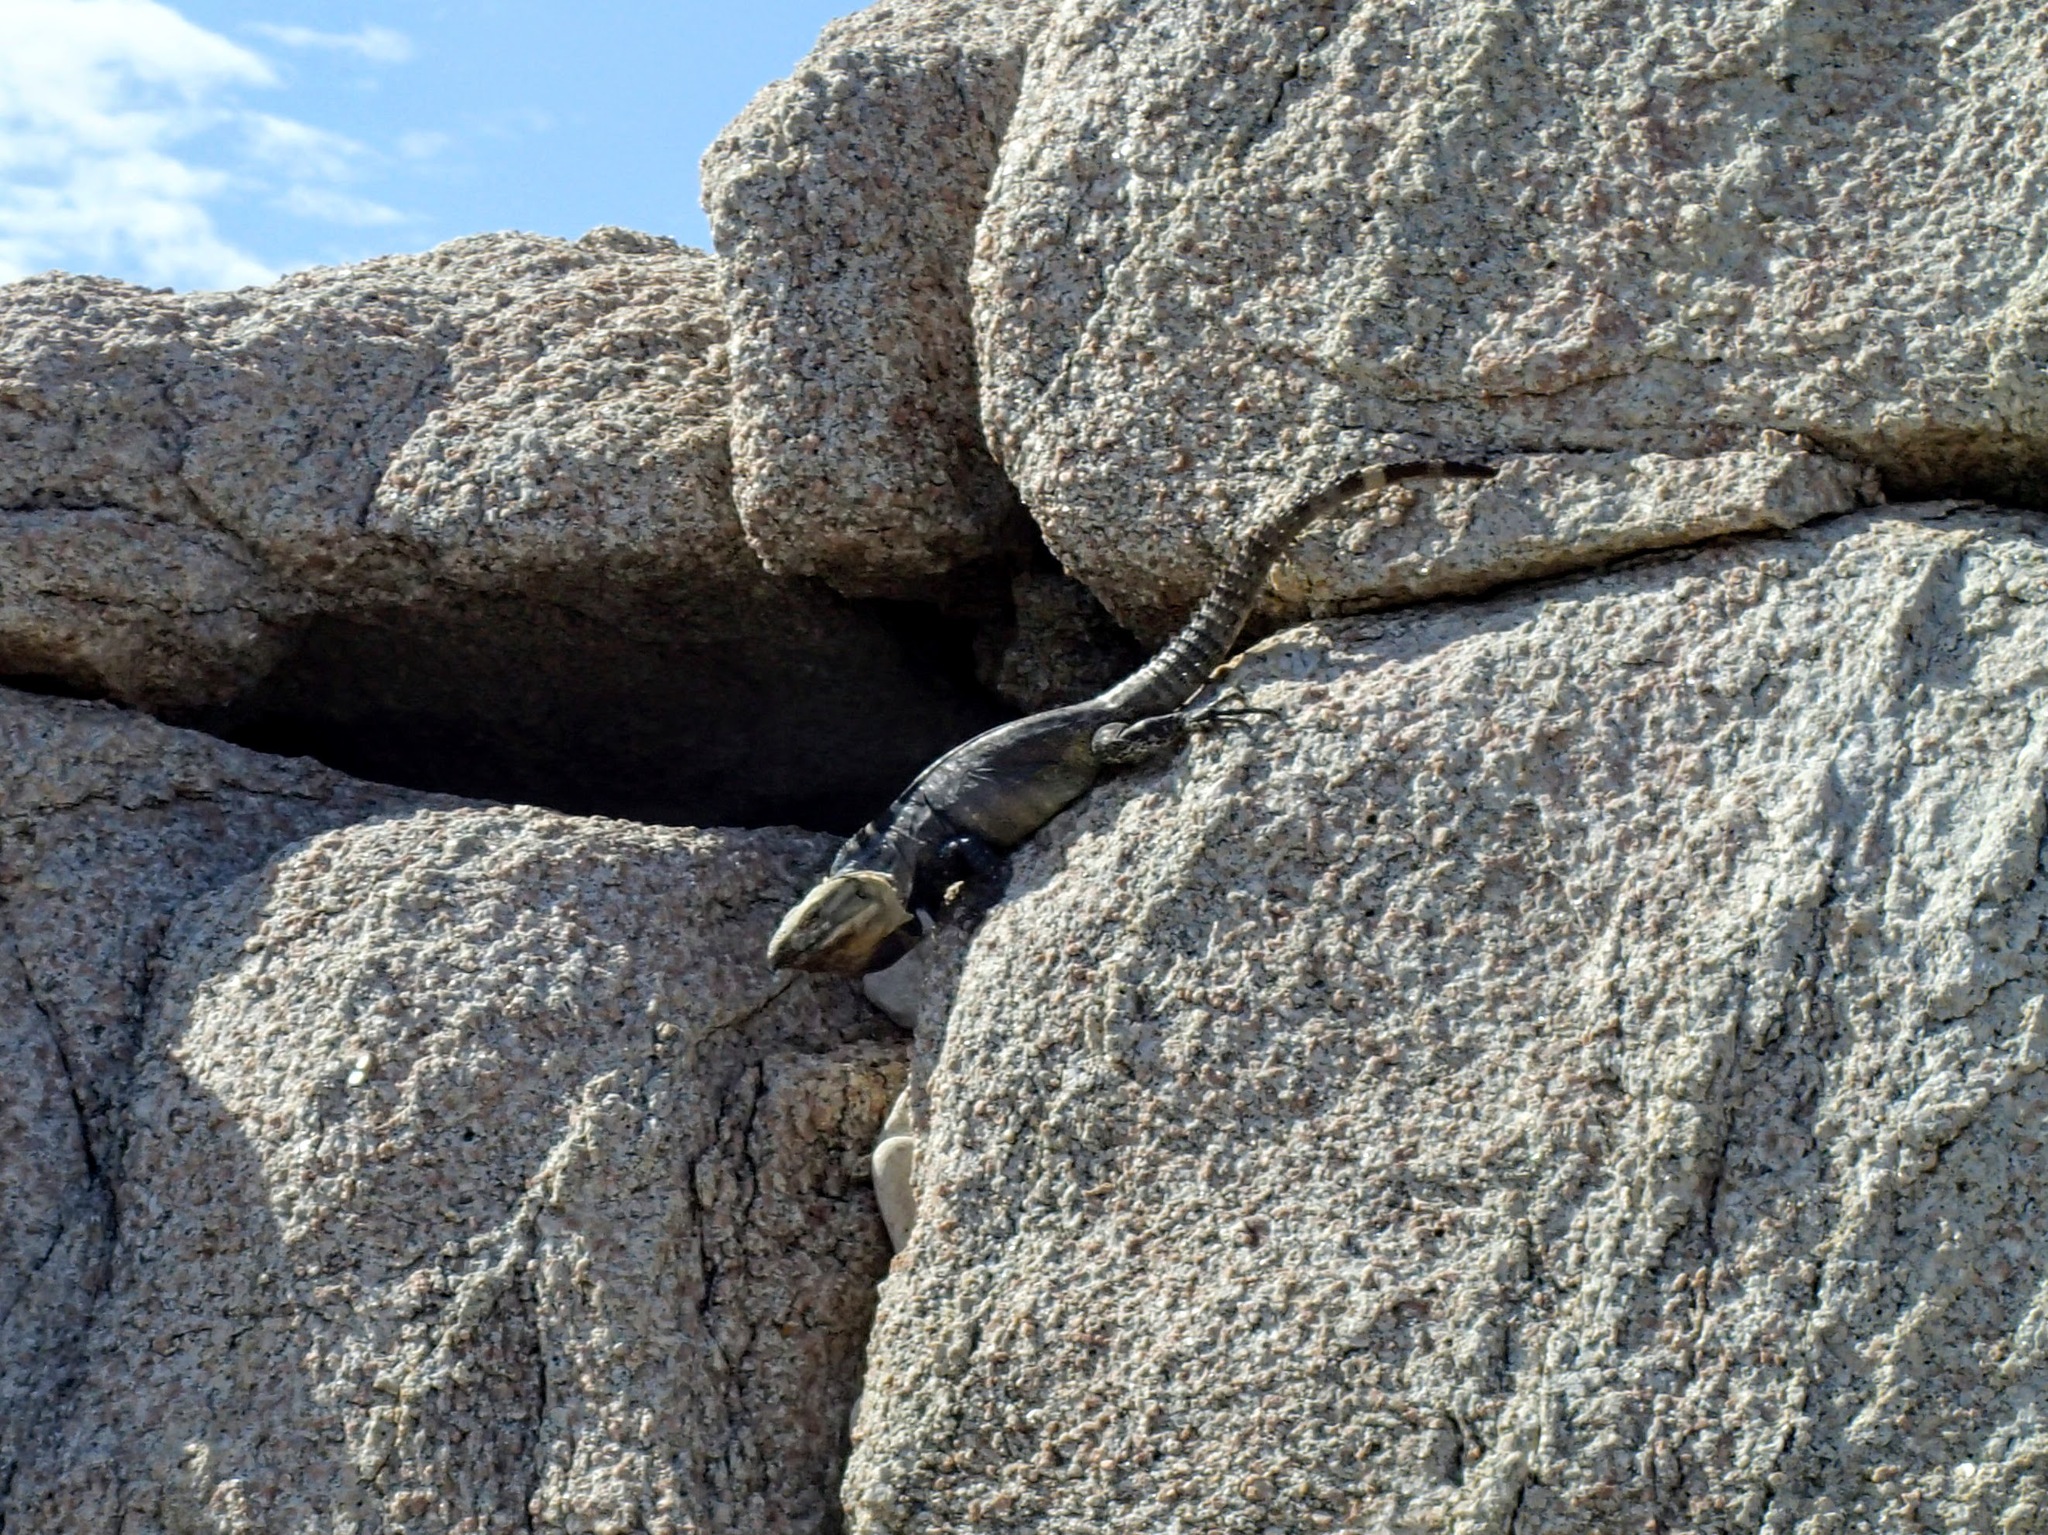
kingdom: Animalia
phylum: Chordata
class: Squamata
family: Iguanidae
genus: Ctenosaura
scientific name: Ctenosaura hemilopha
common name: Baja california spiny- tailed iguana
